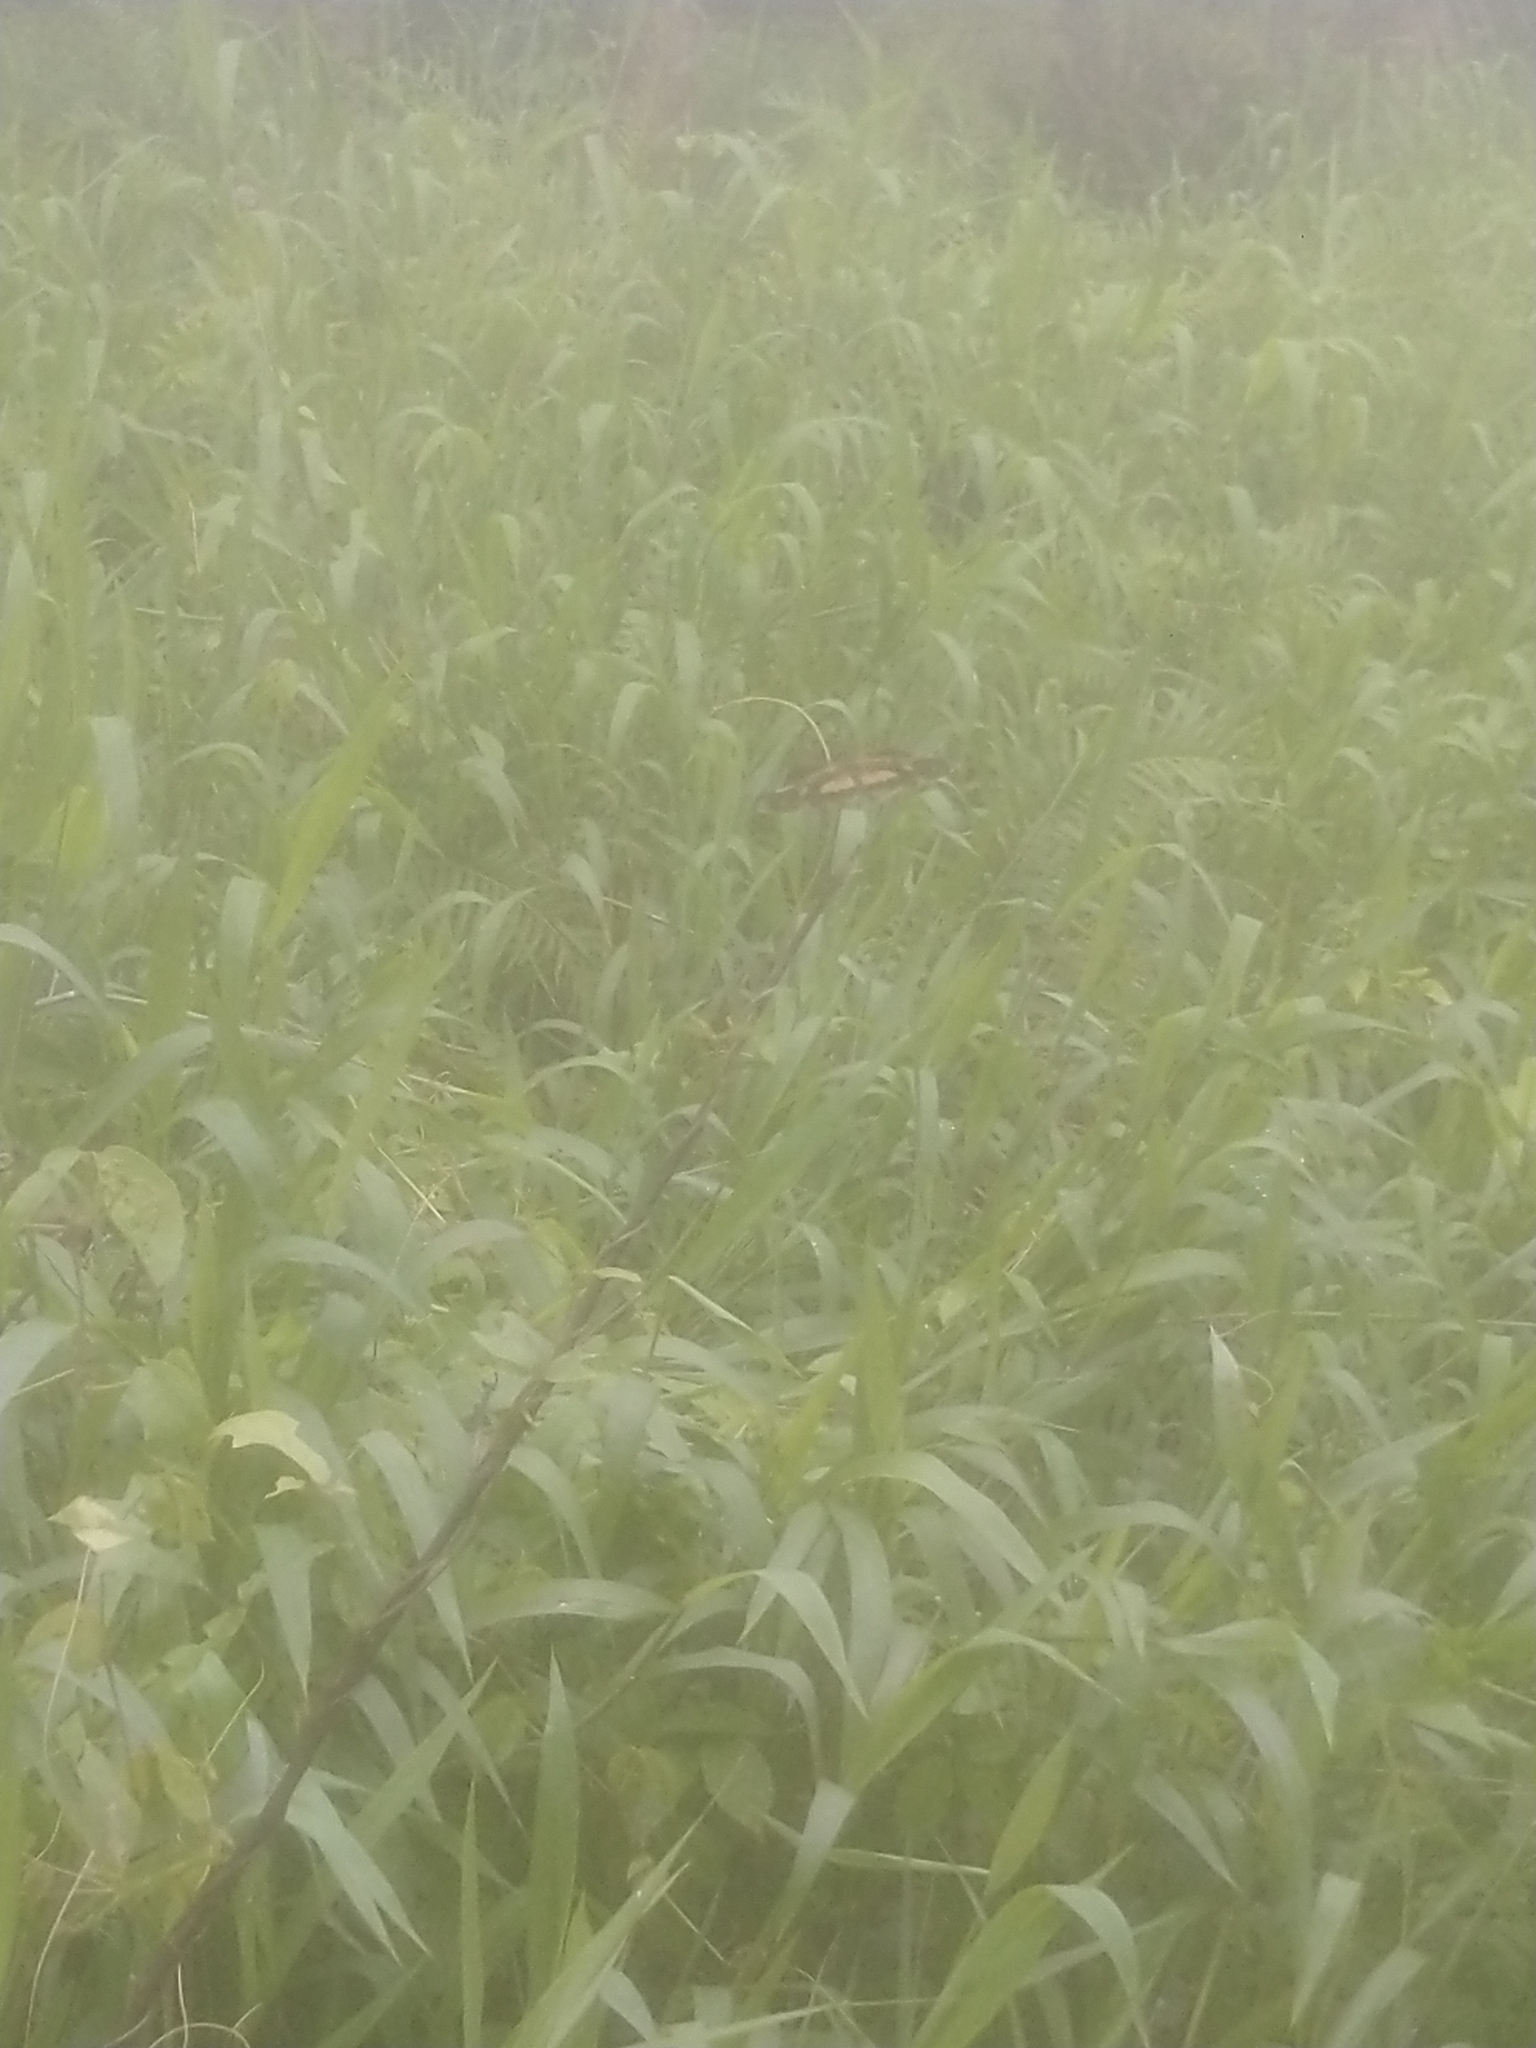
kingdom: Animalia
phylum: Arthropoda
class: Insecta
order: Odonata
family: Libellulidae
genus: Rhyothemis
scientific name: Rhyothemis variegata
